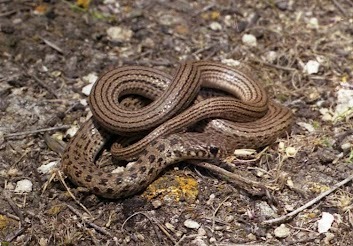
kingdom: Animalia
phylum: Chordata
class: Squamata
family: Colubridae
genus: Eirenis
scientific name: Eirenis punctatolineatus
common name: Dotted dwarf snake
